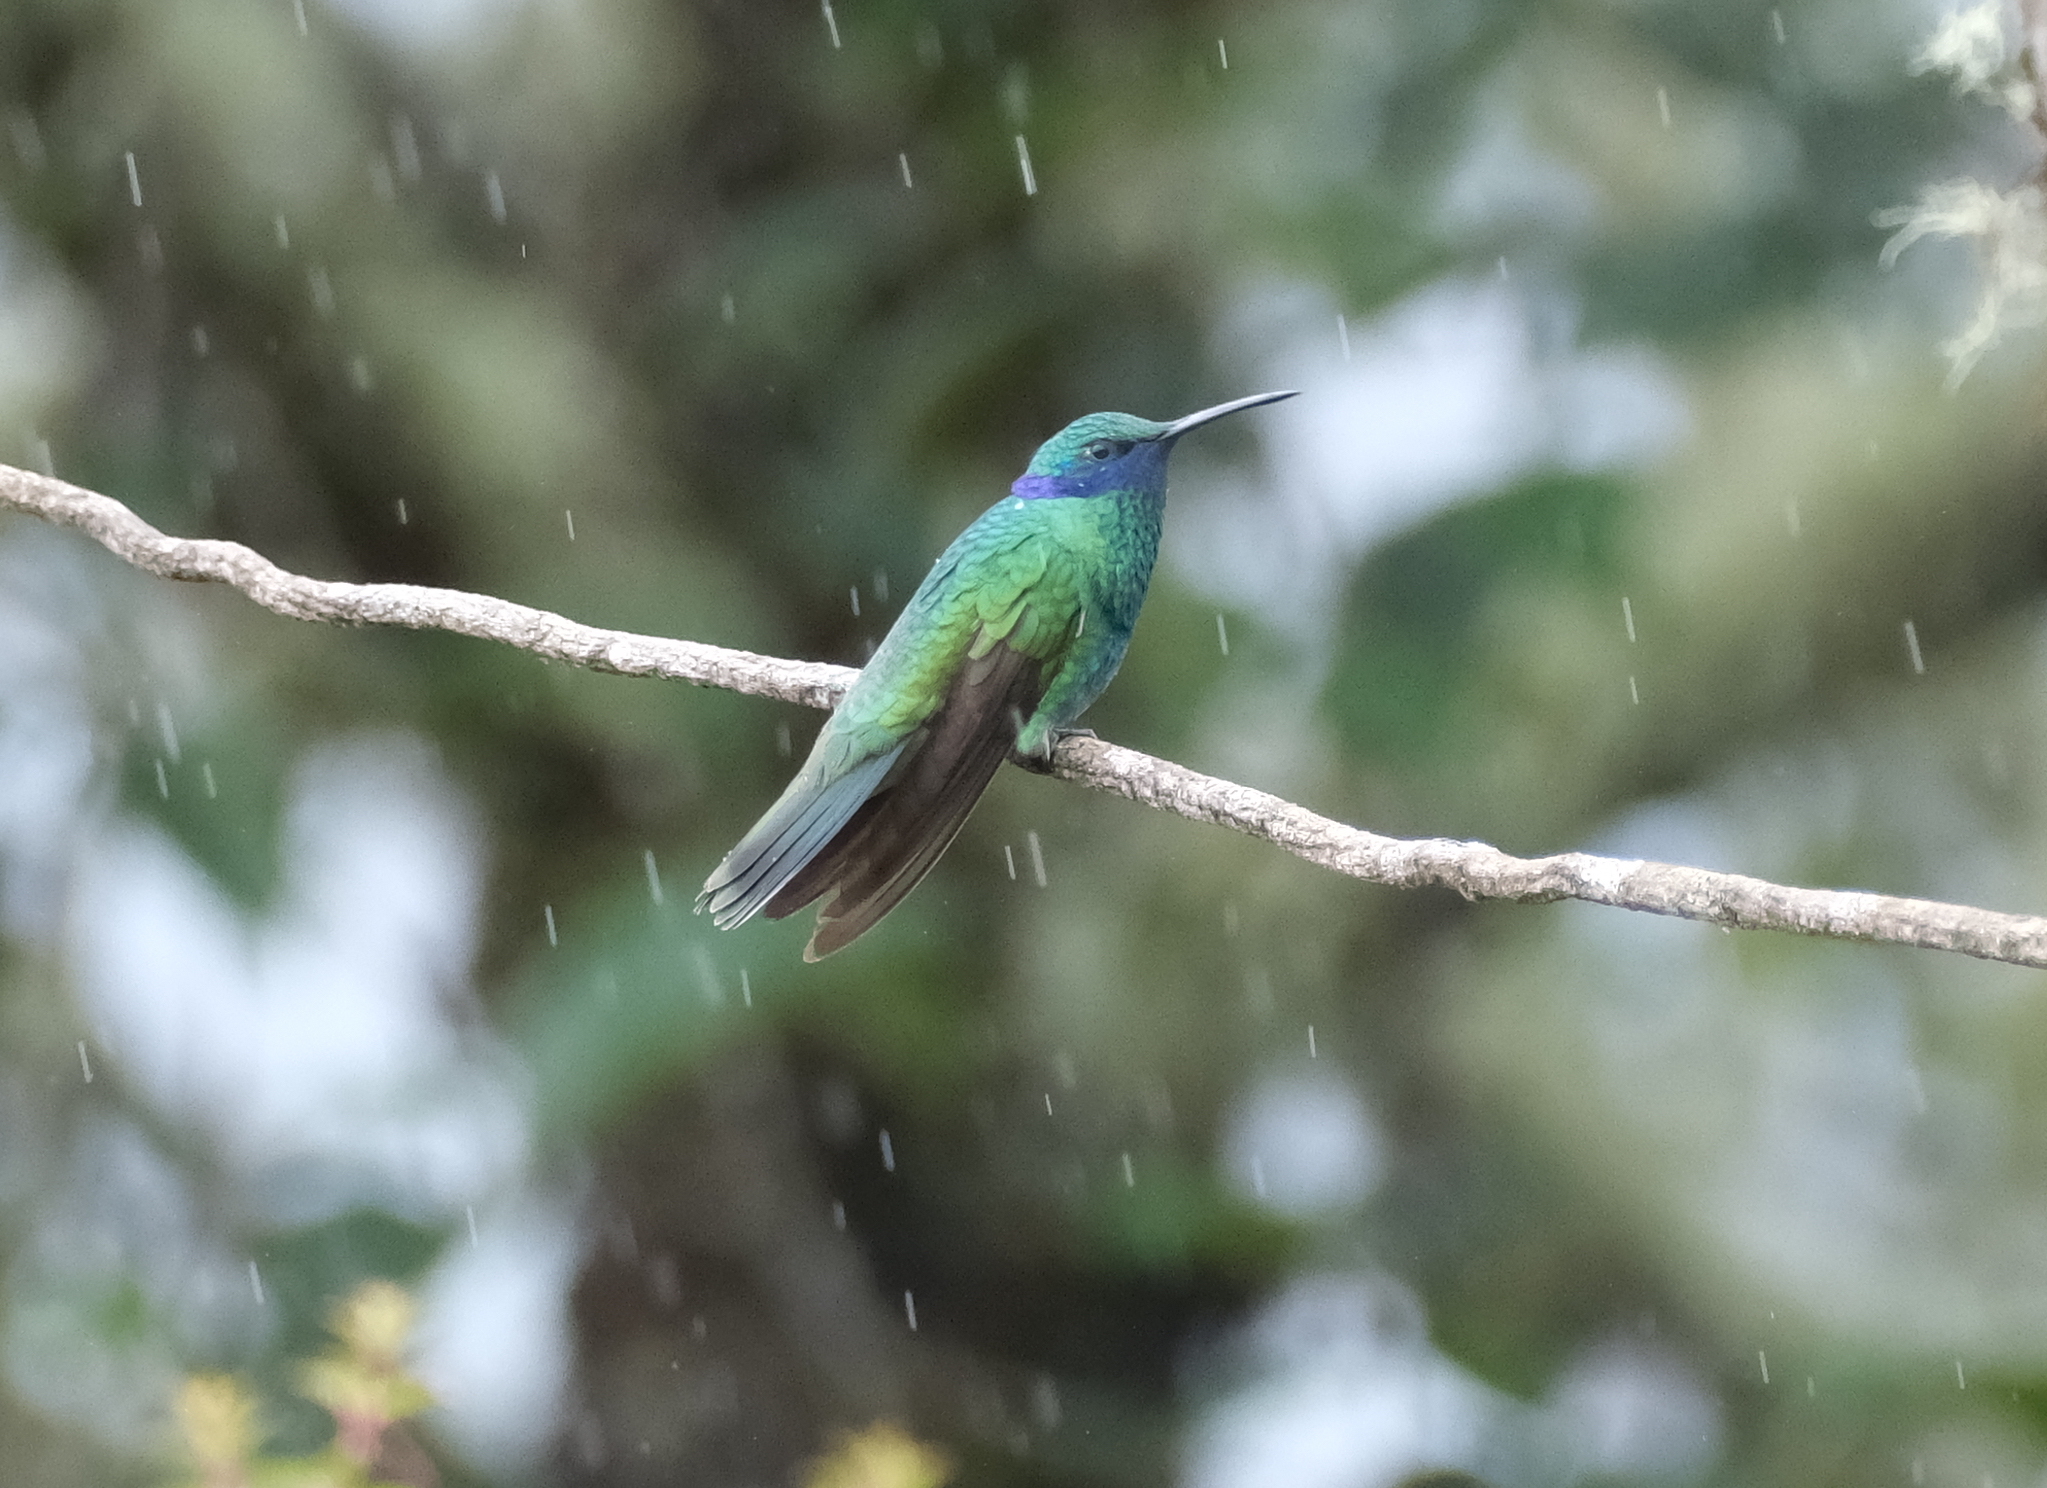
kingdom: Animalia
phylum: Chordata
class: Aves
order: Apodiformes
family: Trochilidae
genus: Colibri
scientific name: Colibri coruscans
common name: Sparkling violetear
